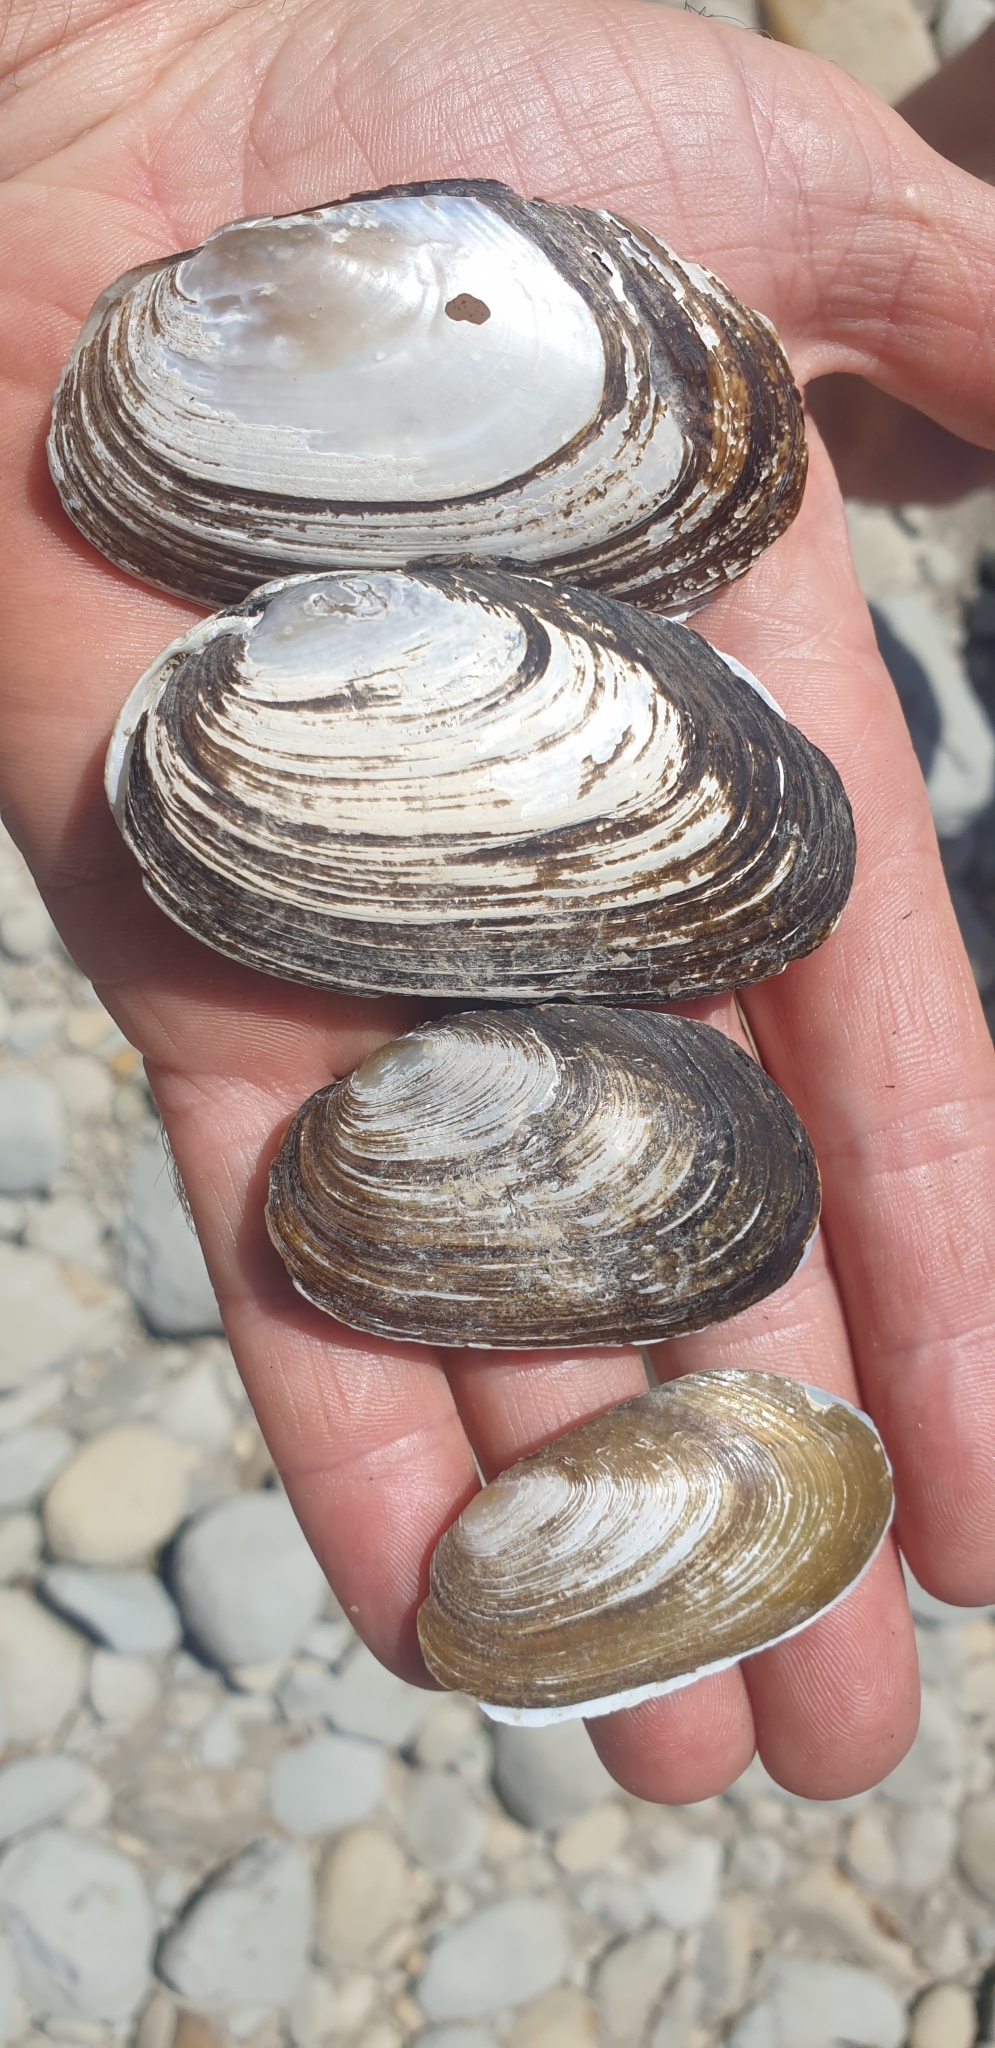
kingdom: Animalia
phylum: Mollusca
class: Bivalvia
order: Unionida
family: Hyriidae
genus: Echyridella
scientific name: Echyridella menziesii
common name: New zealand freshwater mussel
